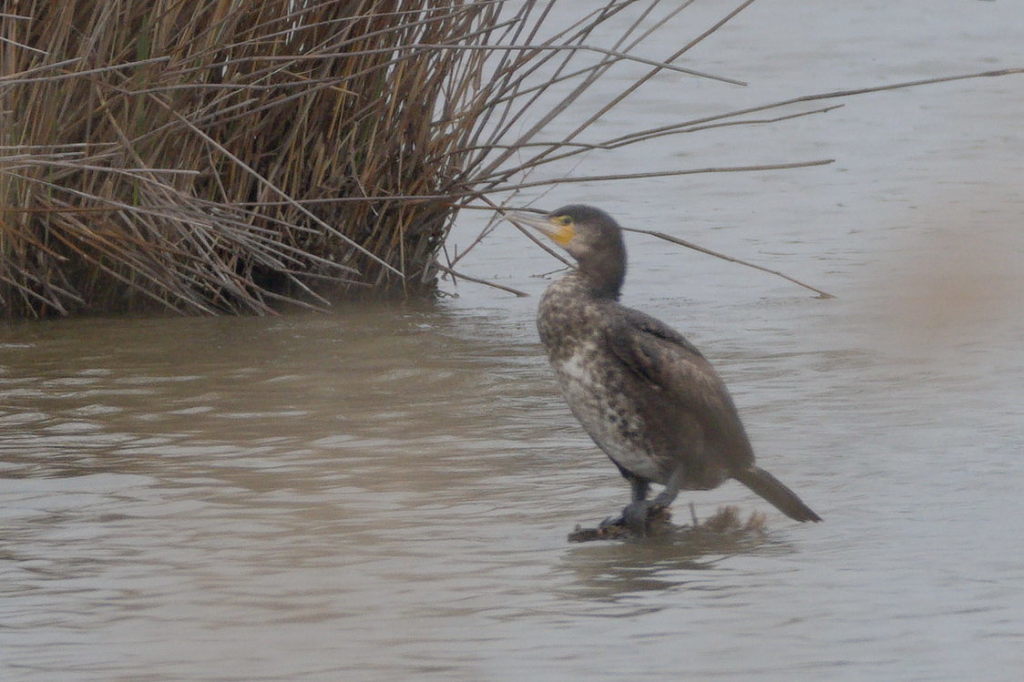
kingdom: Animalia
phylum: Chordata
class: Aves
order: Suliformes
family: Phalacrocoracidae
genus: Phalacrocorax
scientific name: Phalacrocorax carbo
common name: Great cormorant
